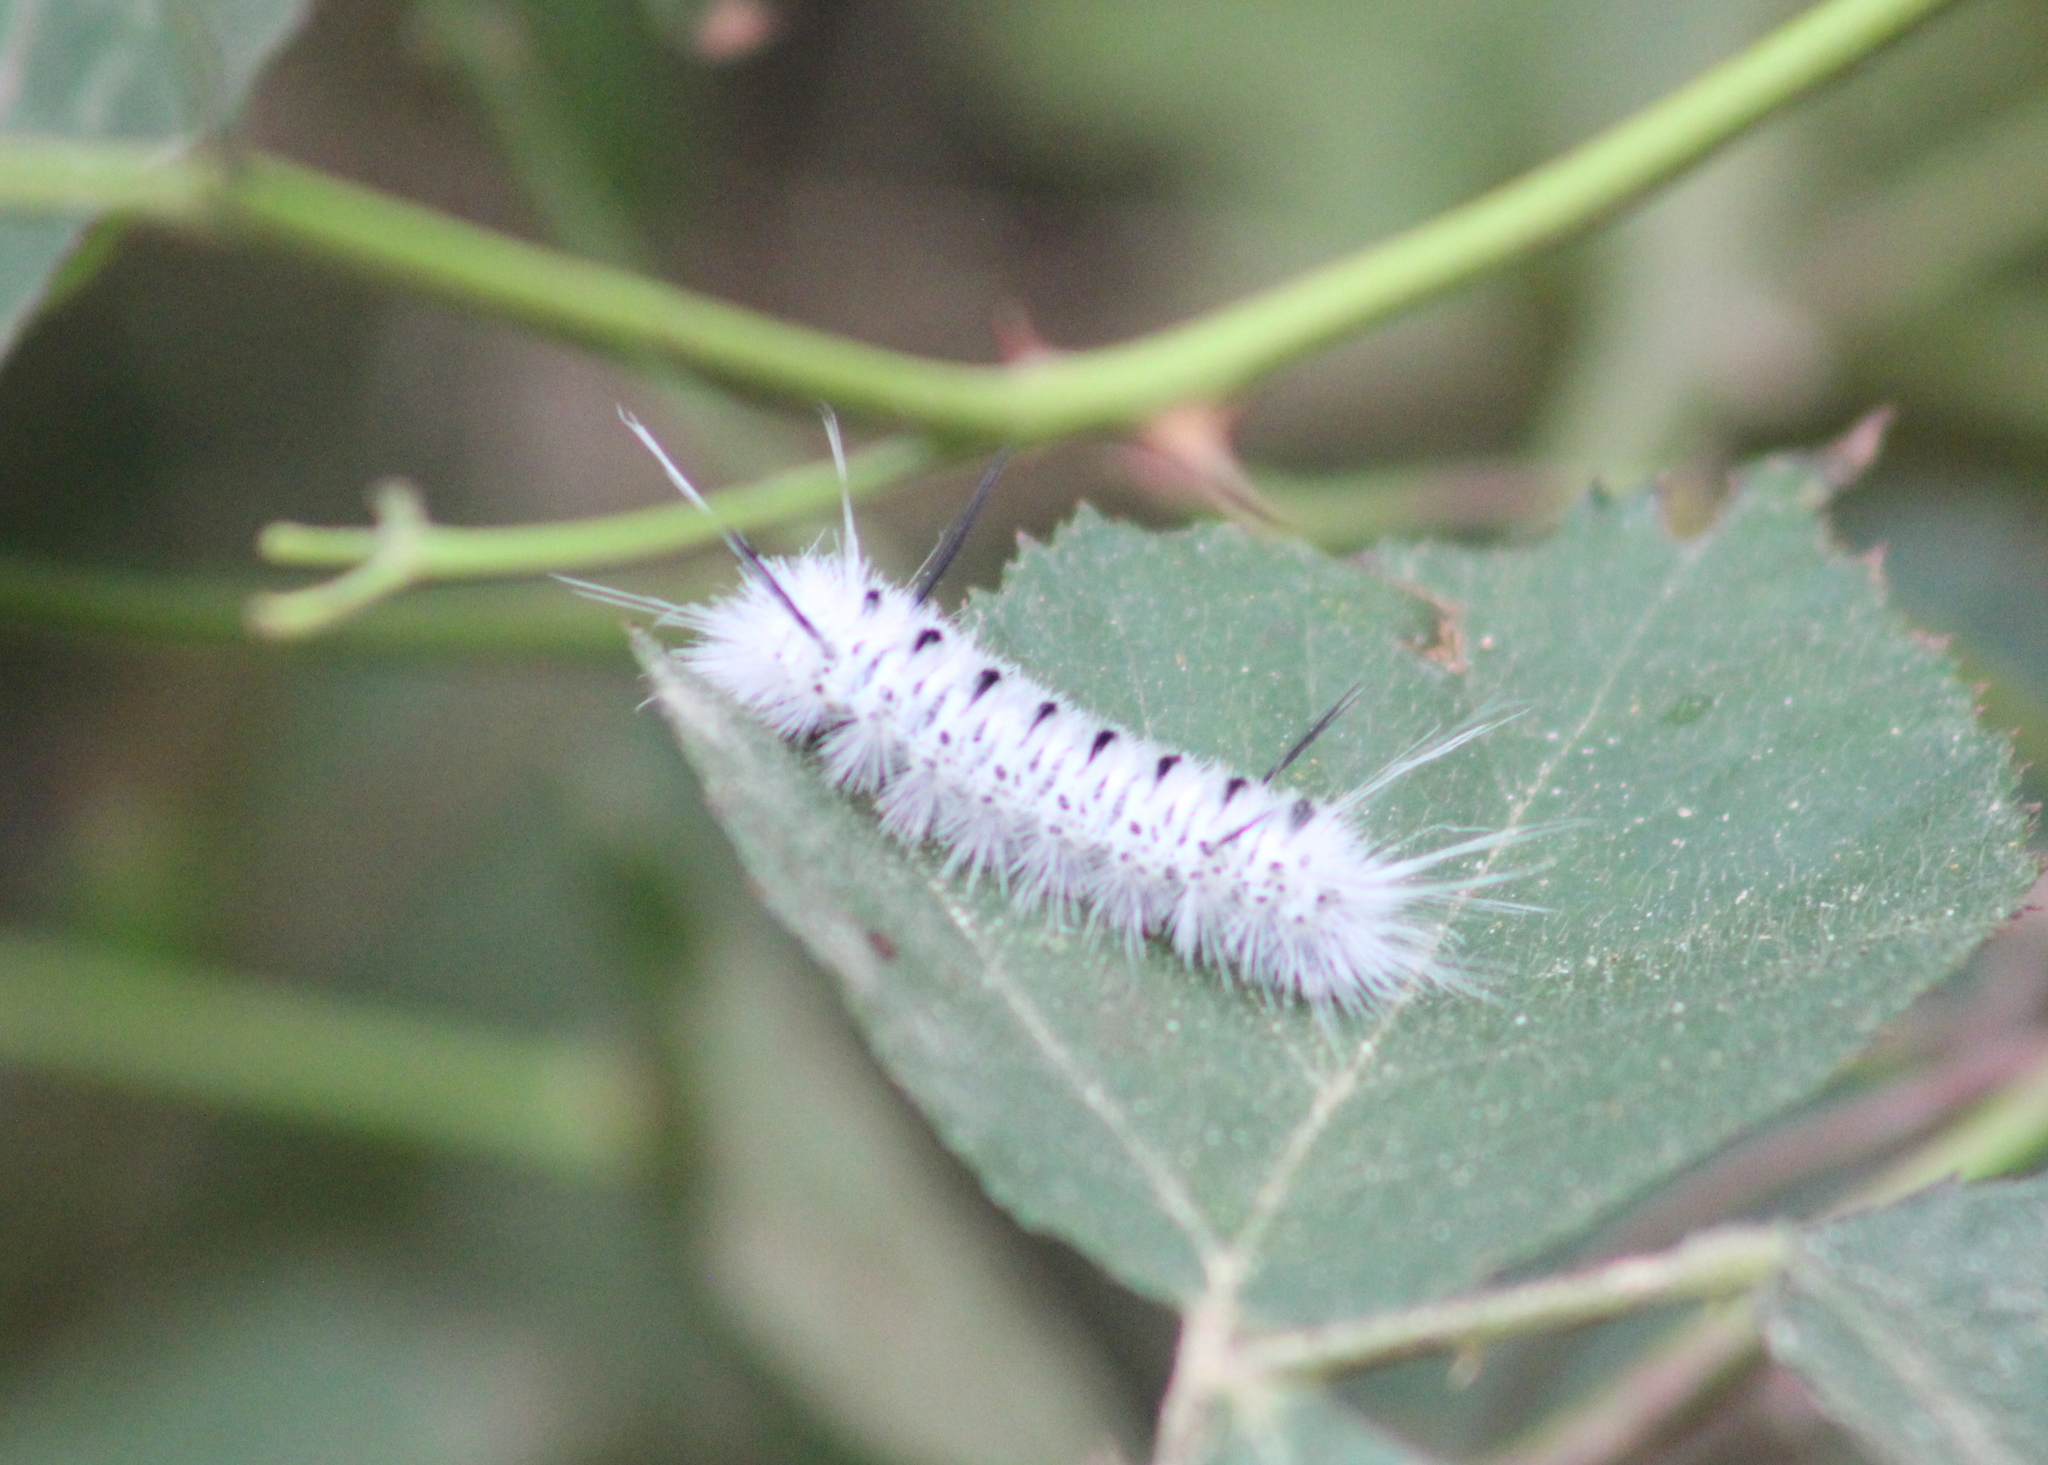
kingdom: Animalia
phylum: Arthropoda
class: Insecta
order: Lepidoptera
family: Erebidae
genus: Lophocampa
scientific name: Lophocampa caryae
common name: Hickory tussock moth
